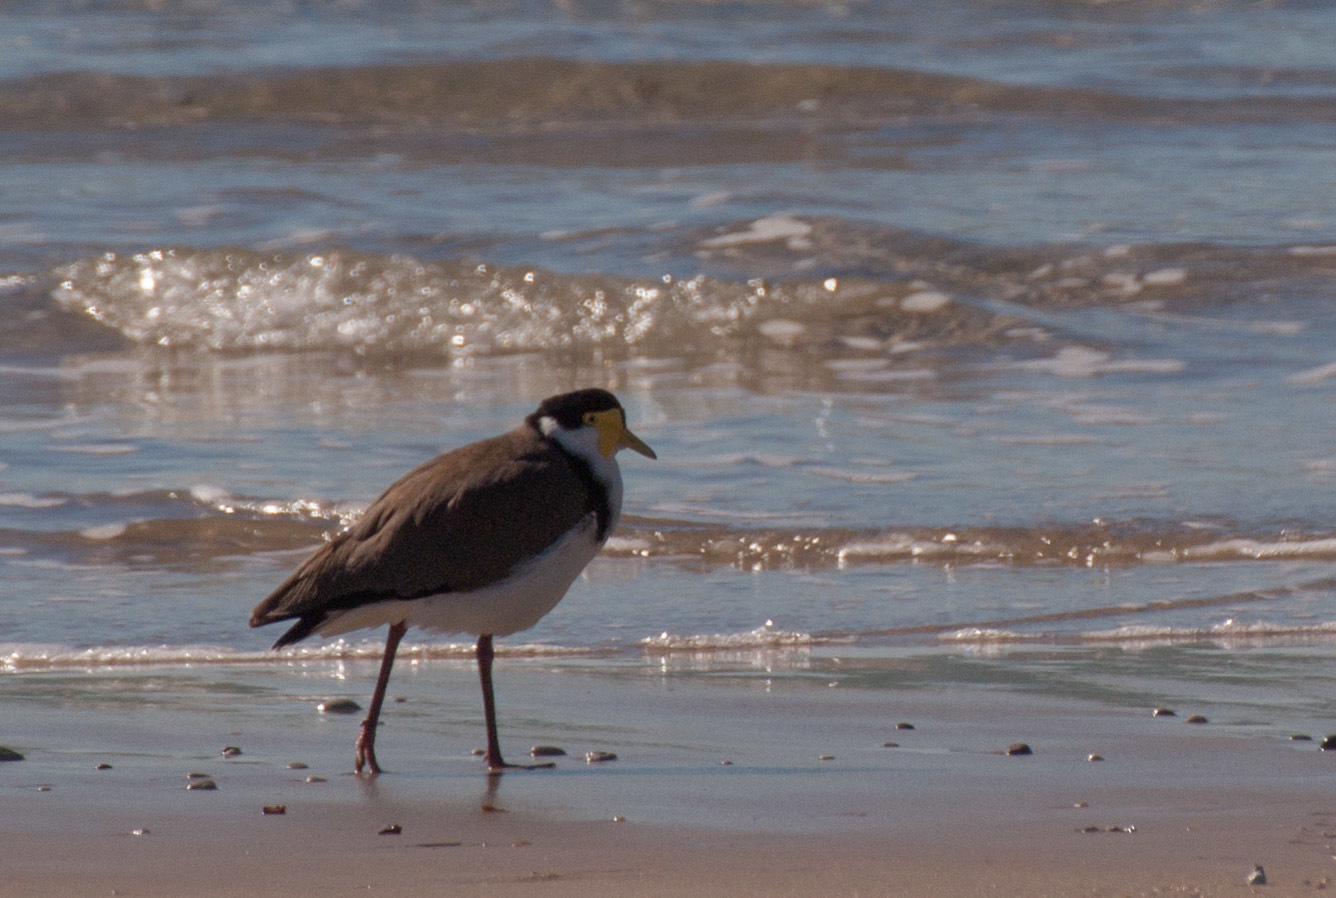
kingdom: Animalia
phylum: Chordata
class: Aves
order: Charadriiformes
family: Charadriidae
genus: Vanellus
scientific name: Vanellus miles
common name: Masked lapwing
